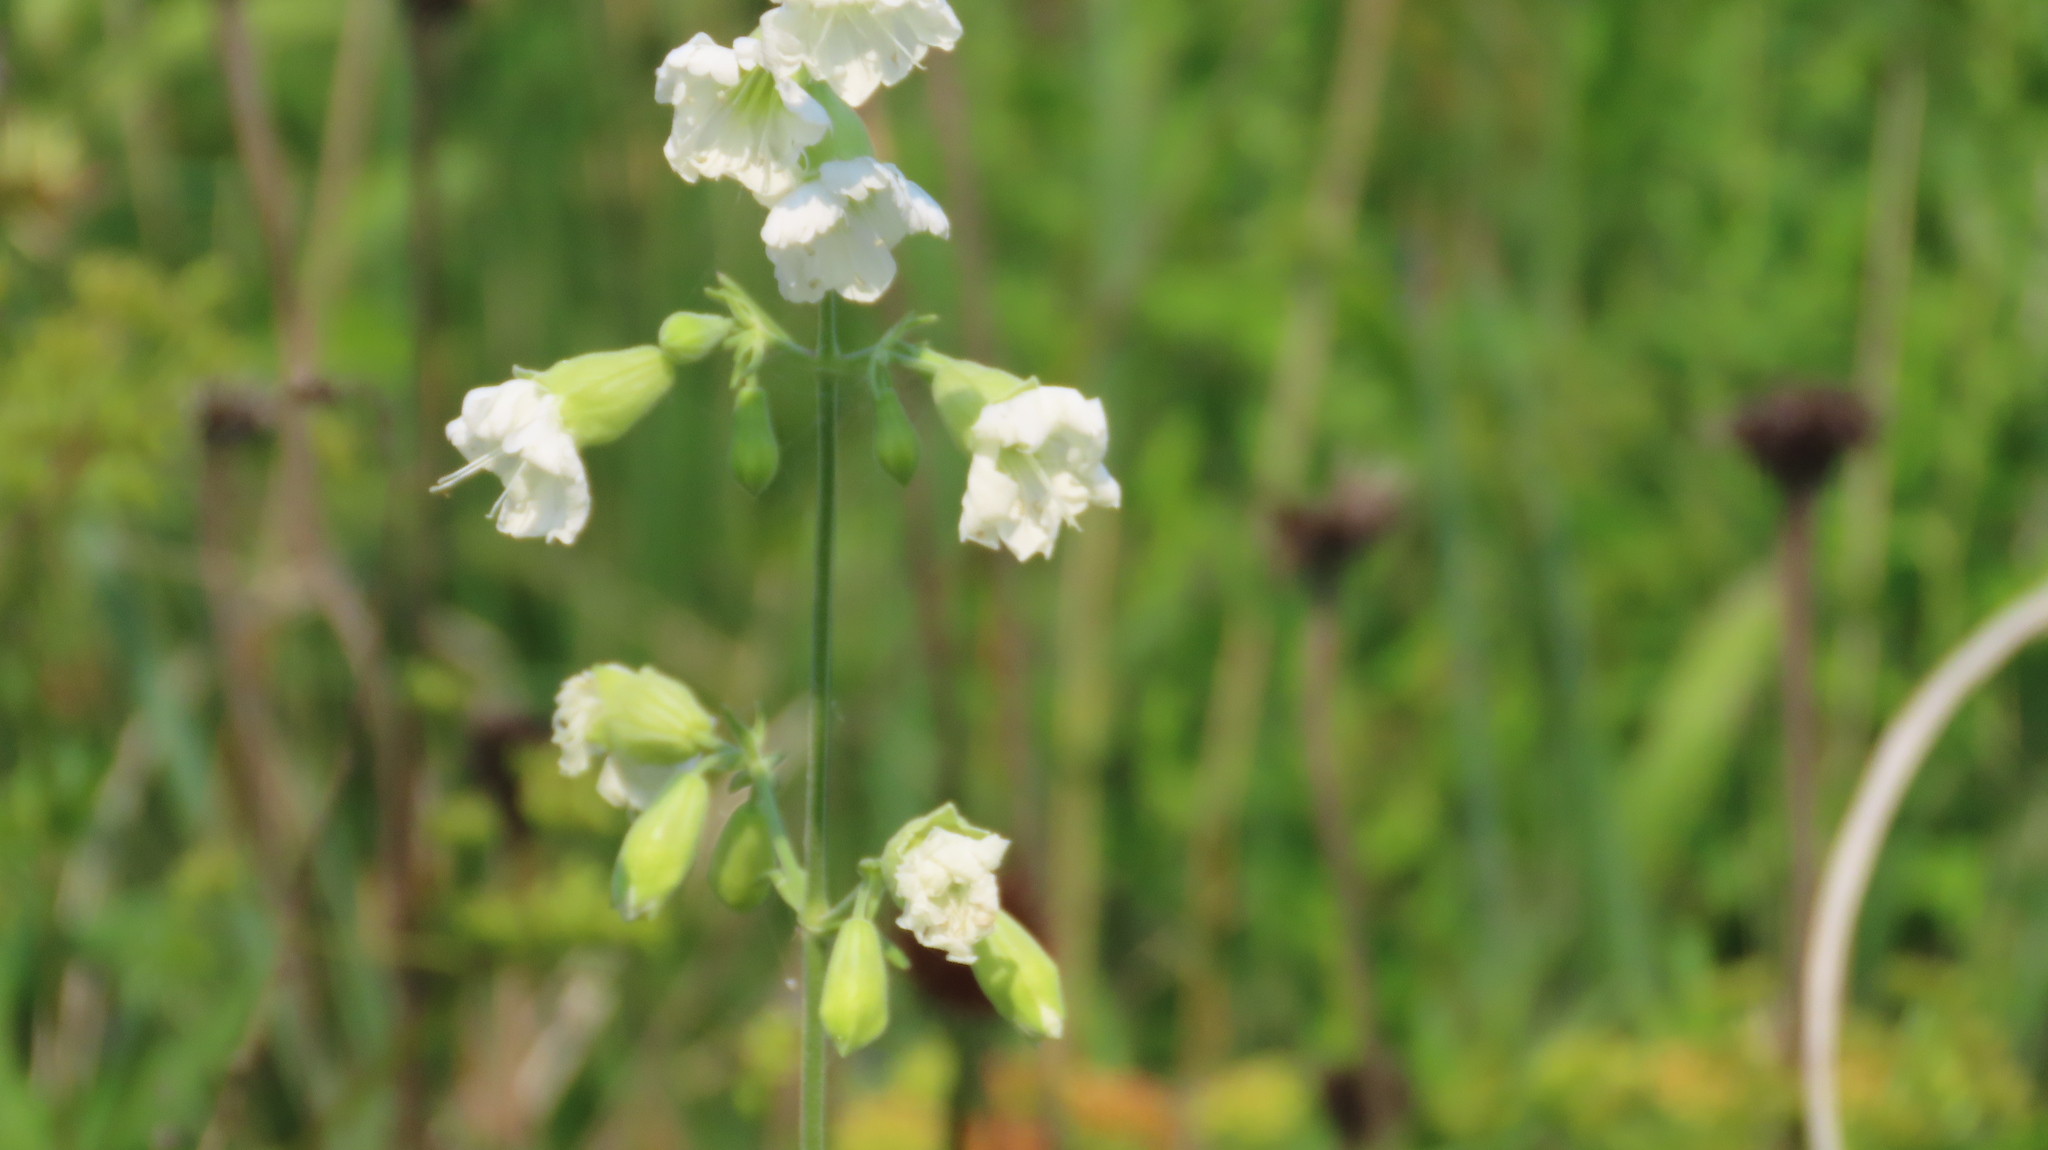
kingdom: Plantae
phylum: Tracheophyta
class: Magnoliopsida
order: Caryophyllales
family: Caryophyllaceae
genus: Silene
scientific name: Silene stellata
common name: Starry campion
